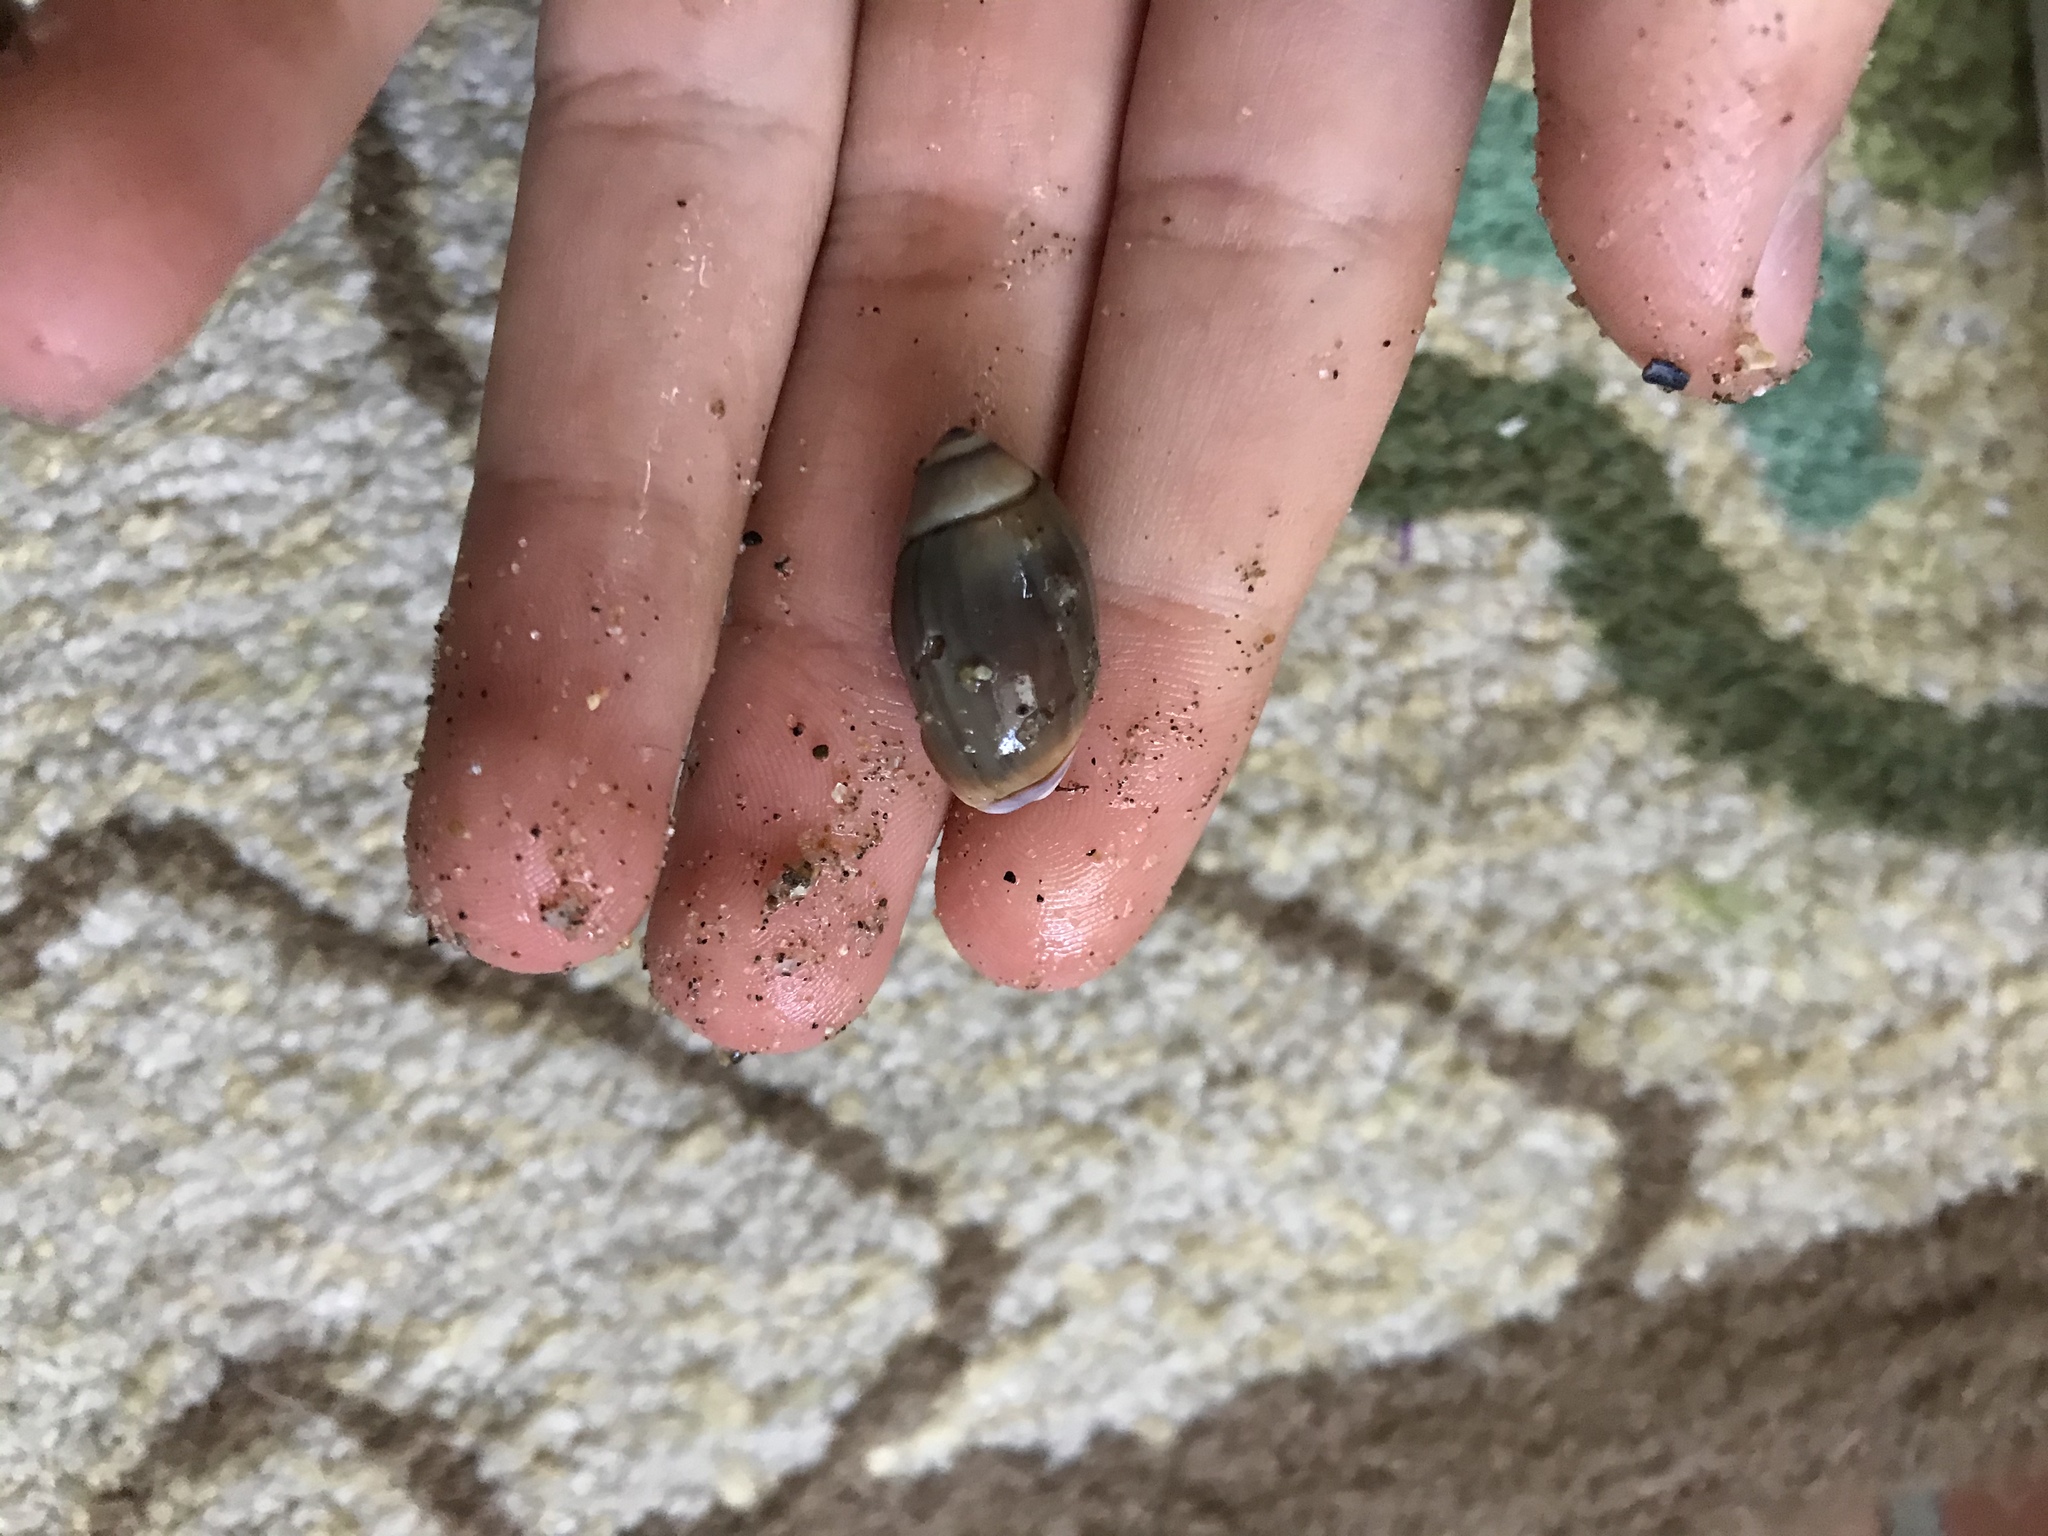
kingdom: Animalia
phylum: Mollusca
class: Gastropoda
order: Neogastropoda
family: Olividae
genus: Callianax
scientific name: Callianax biplicata
